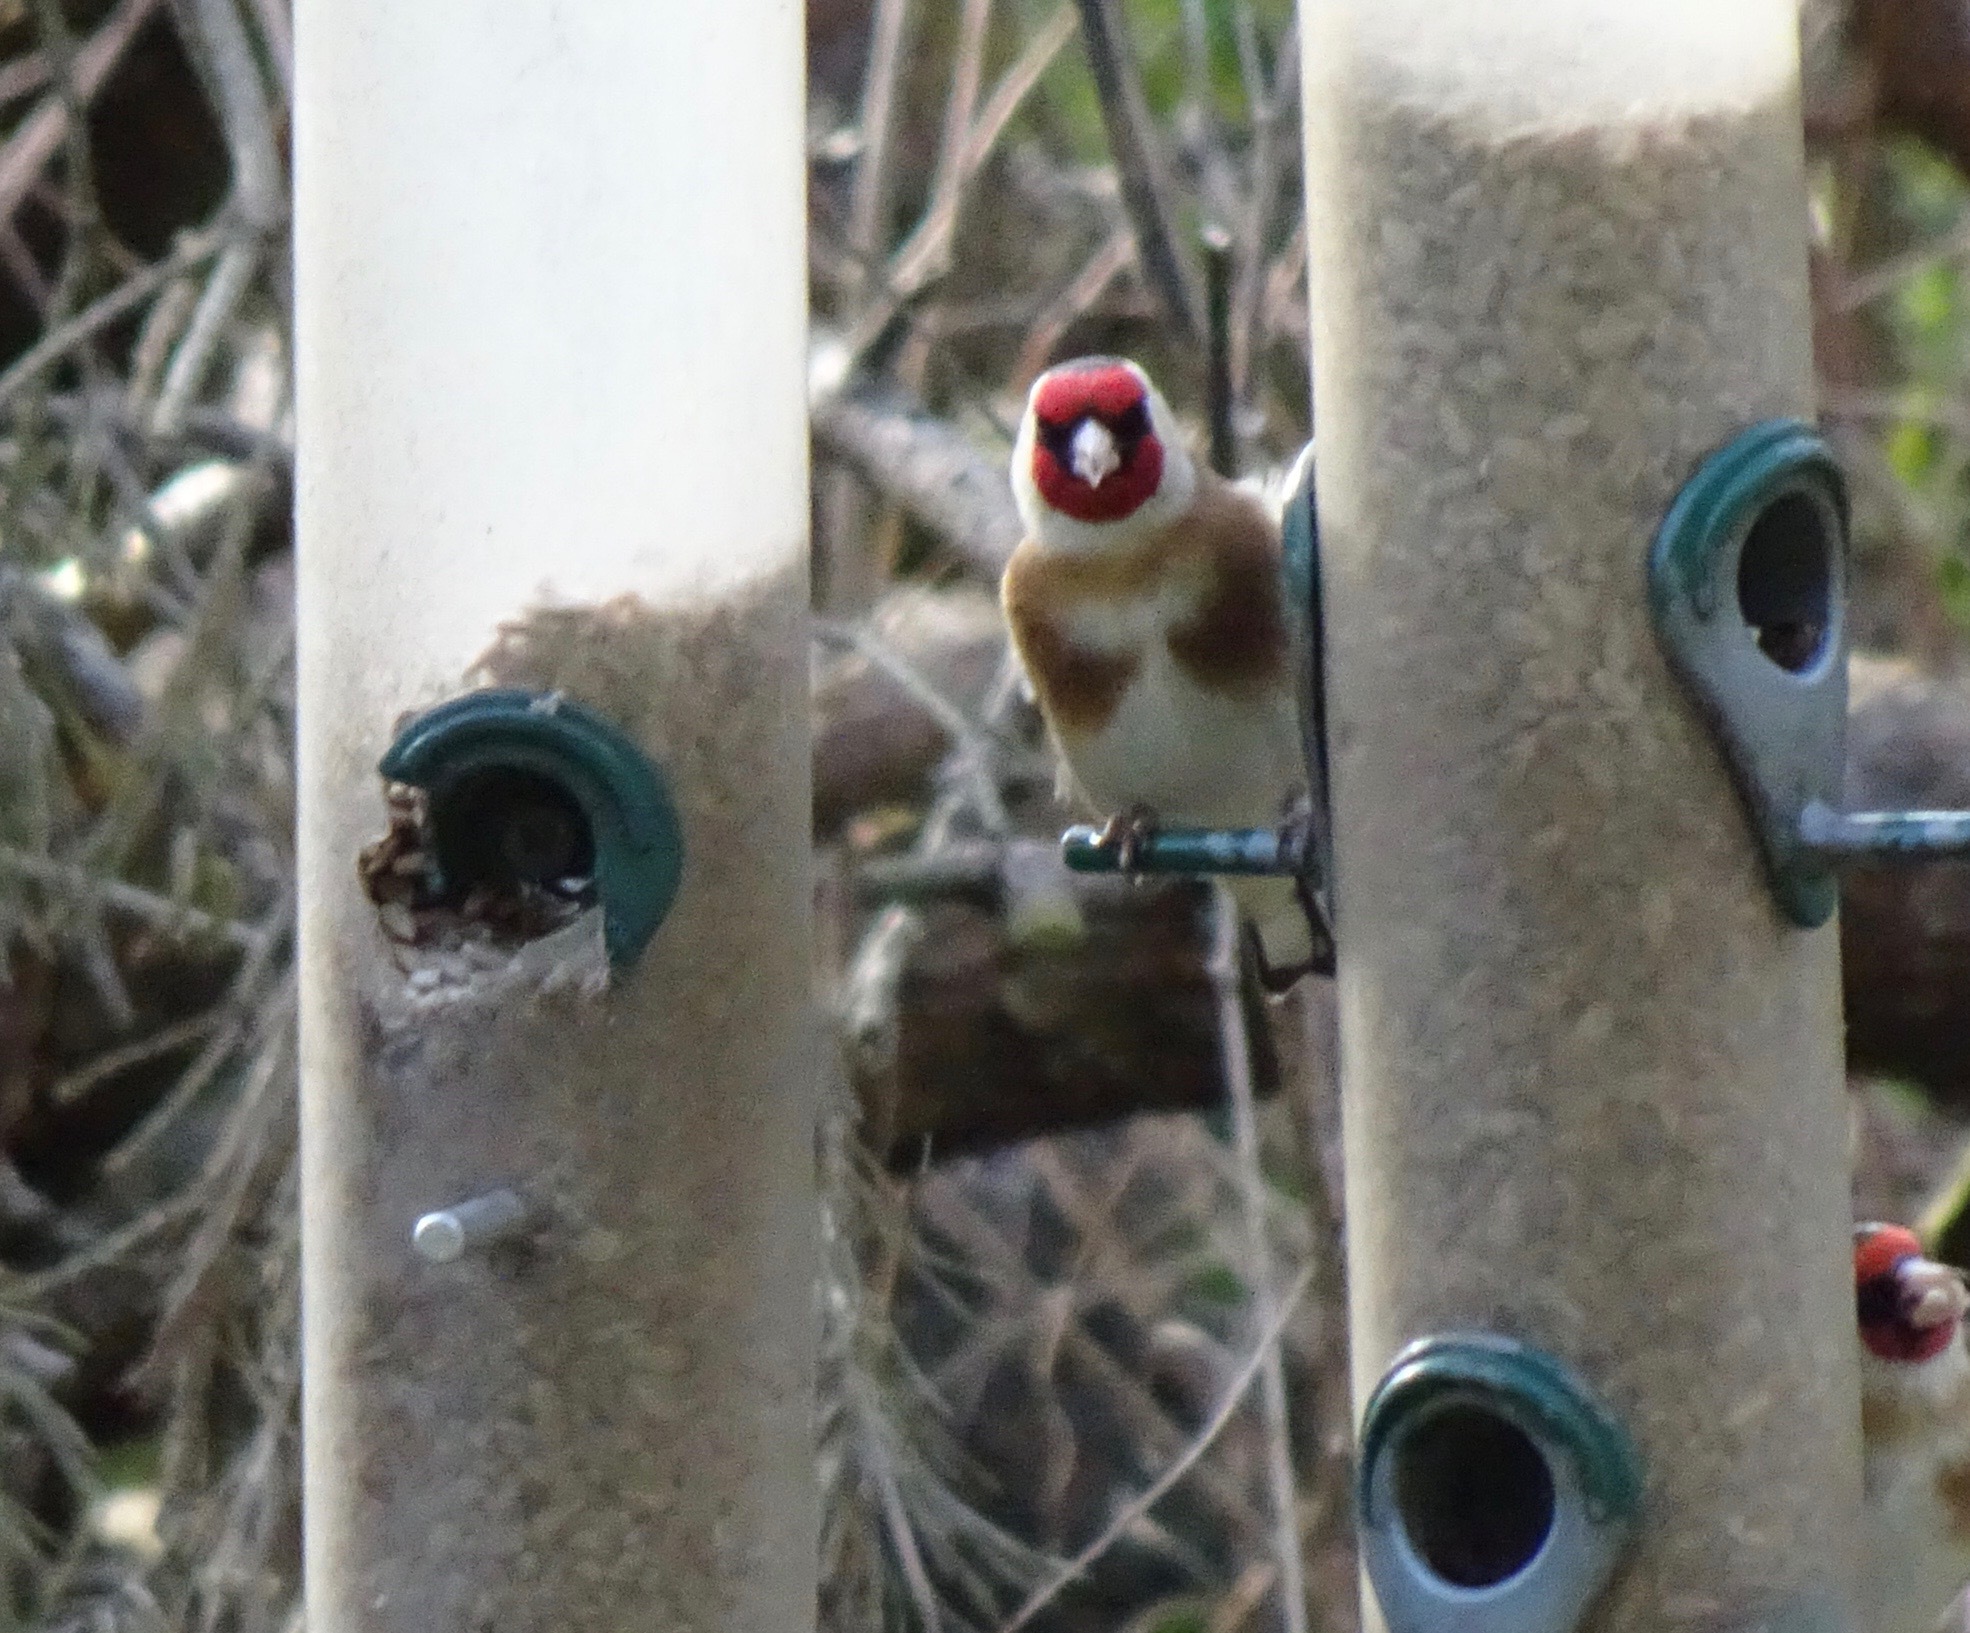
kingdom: Animalia
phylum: Chordata
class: Aves
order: Passeriformes
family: Fringillidae
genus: Carduelis
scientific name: Carduelis carduelis
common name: European goldfinch
